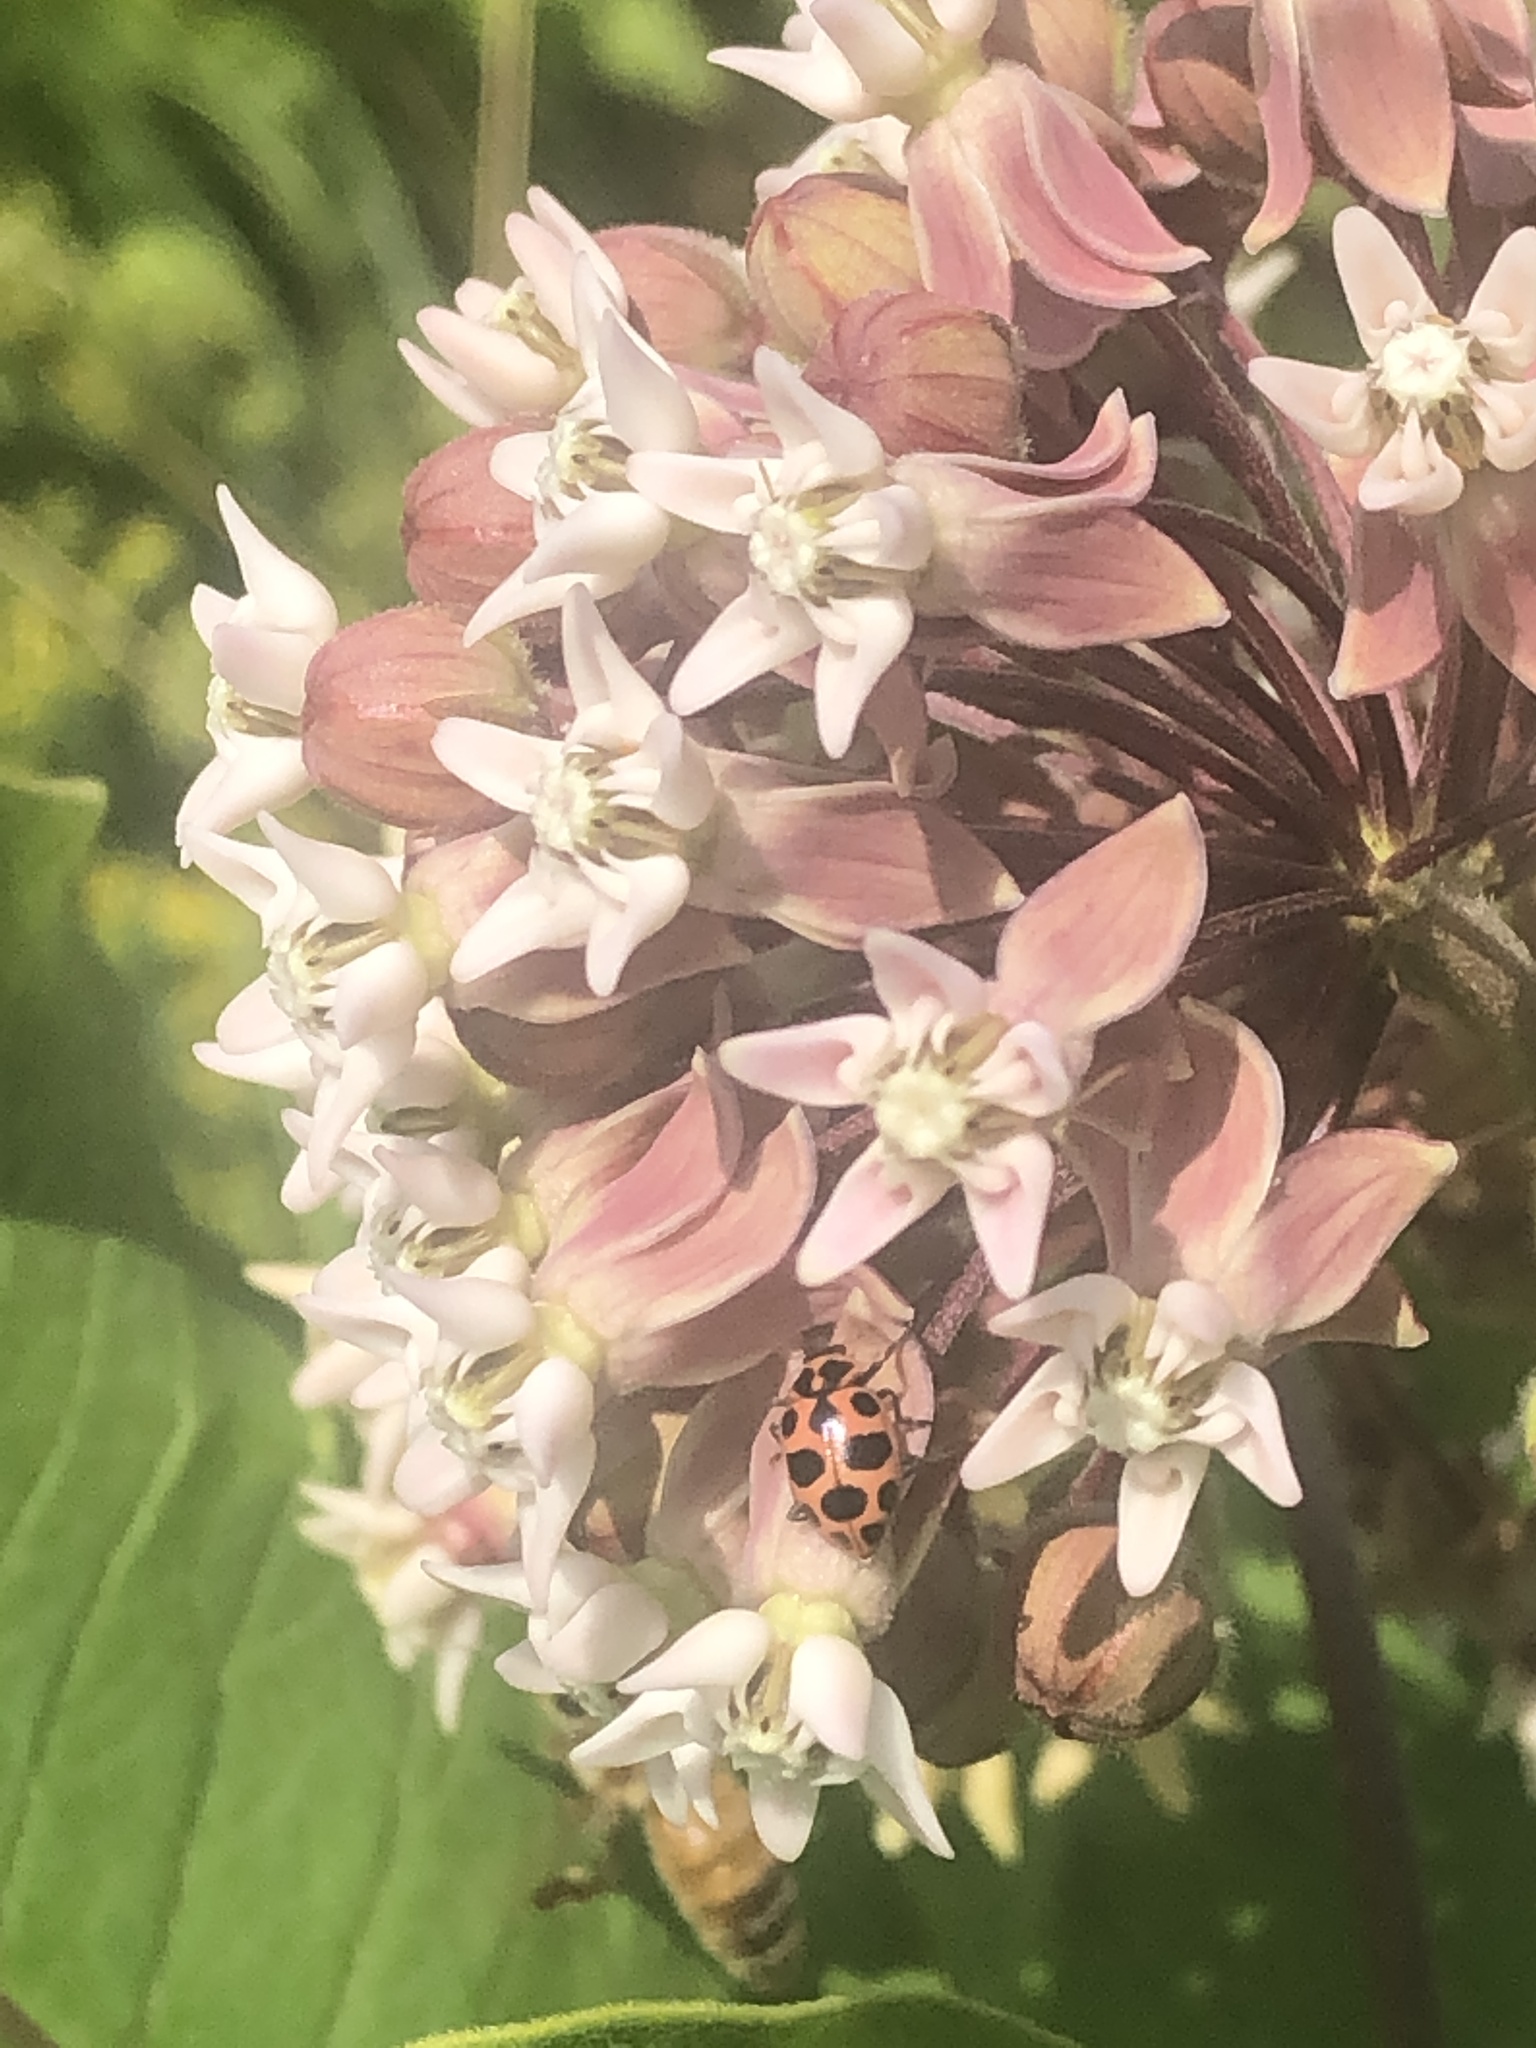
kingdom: Animalia
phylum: Arthropoda
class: Insecta
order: Coleoptera
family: Coccinellidae
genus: Coleomegilla
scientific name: Coleomegilla maculata
